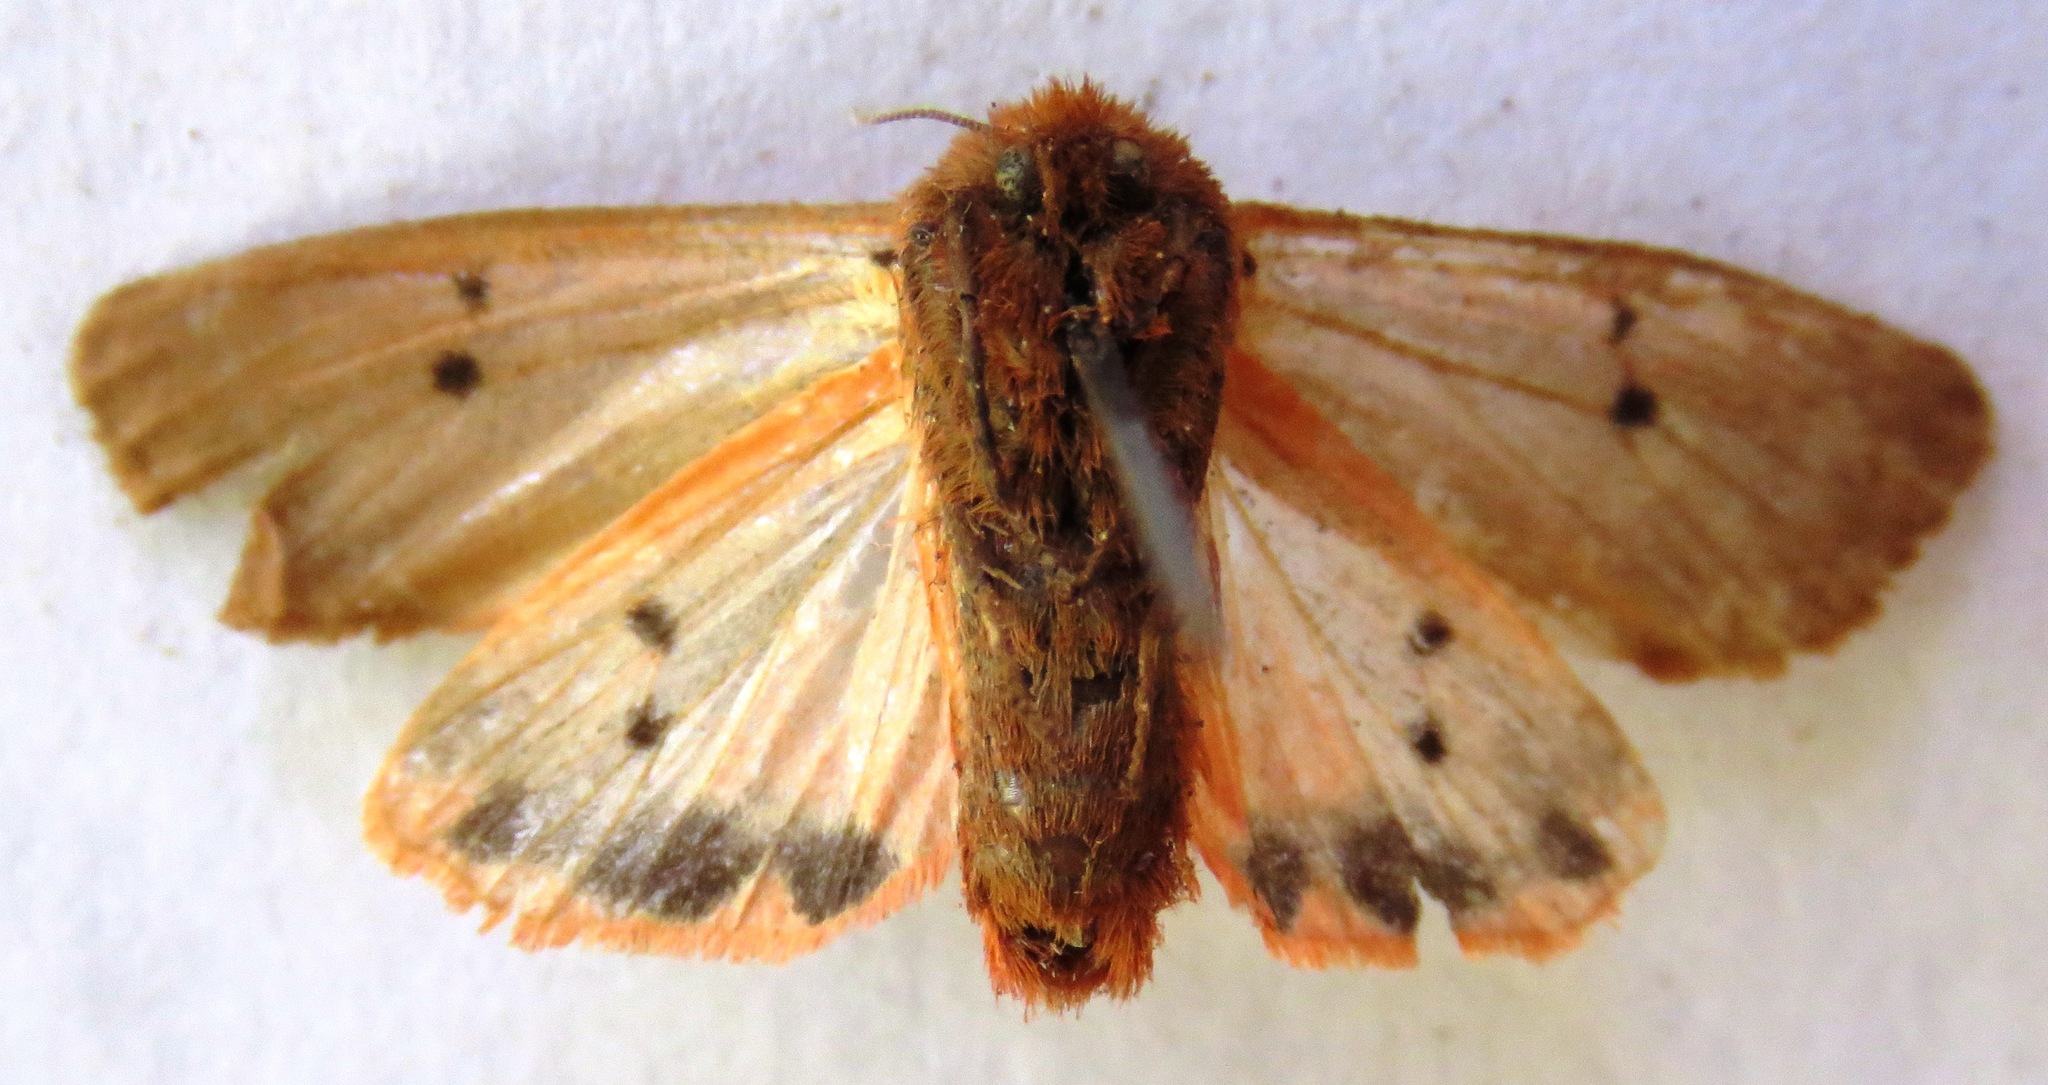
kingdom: Animalia
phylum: Arthropoda
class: Insecta
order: Lepidoptera
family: Erebidae
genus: Phragmatobia
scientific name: Phragmatobia fuliginosa
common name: Ruby tiger
